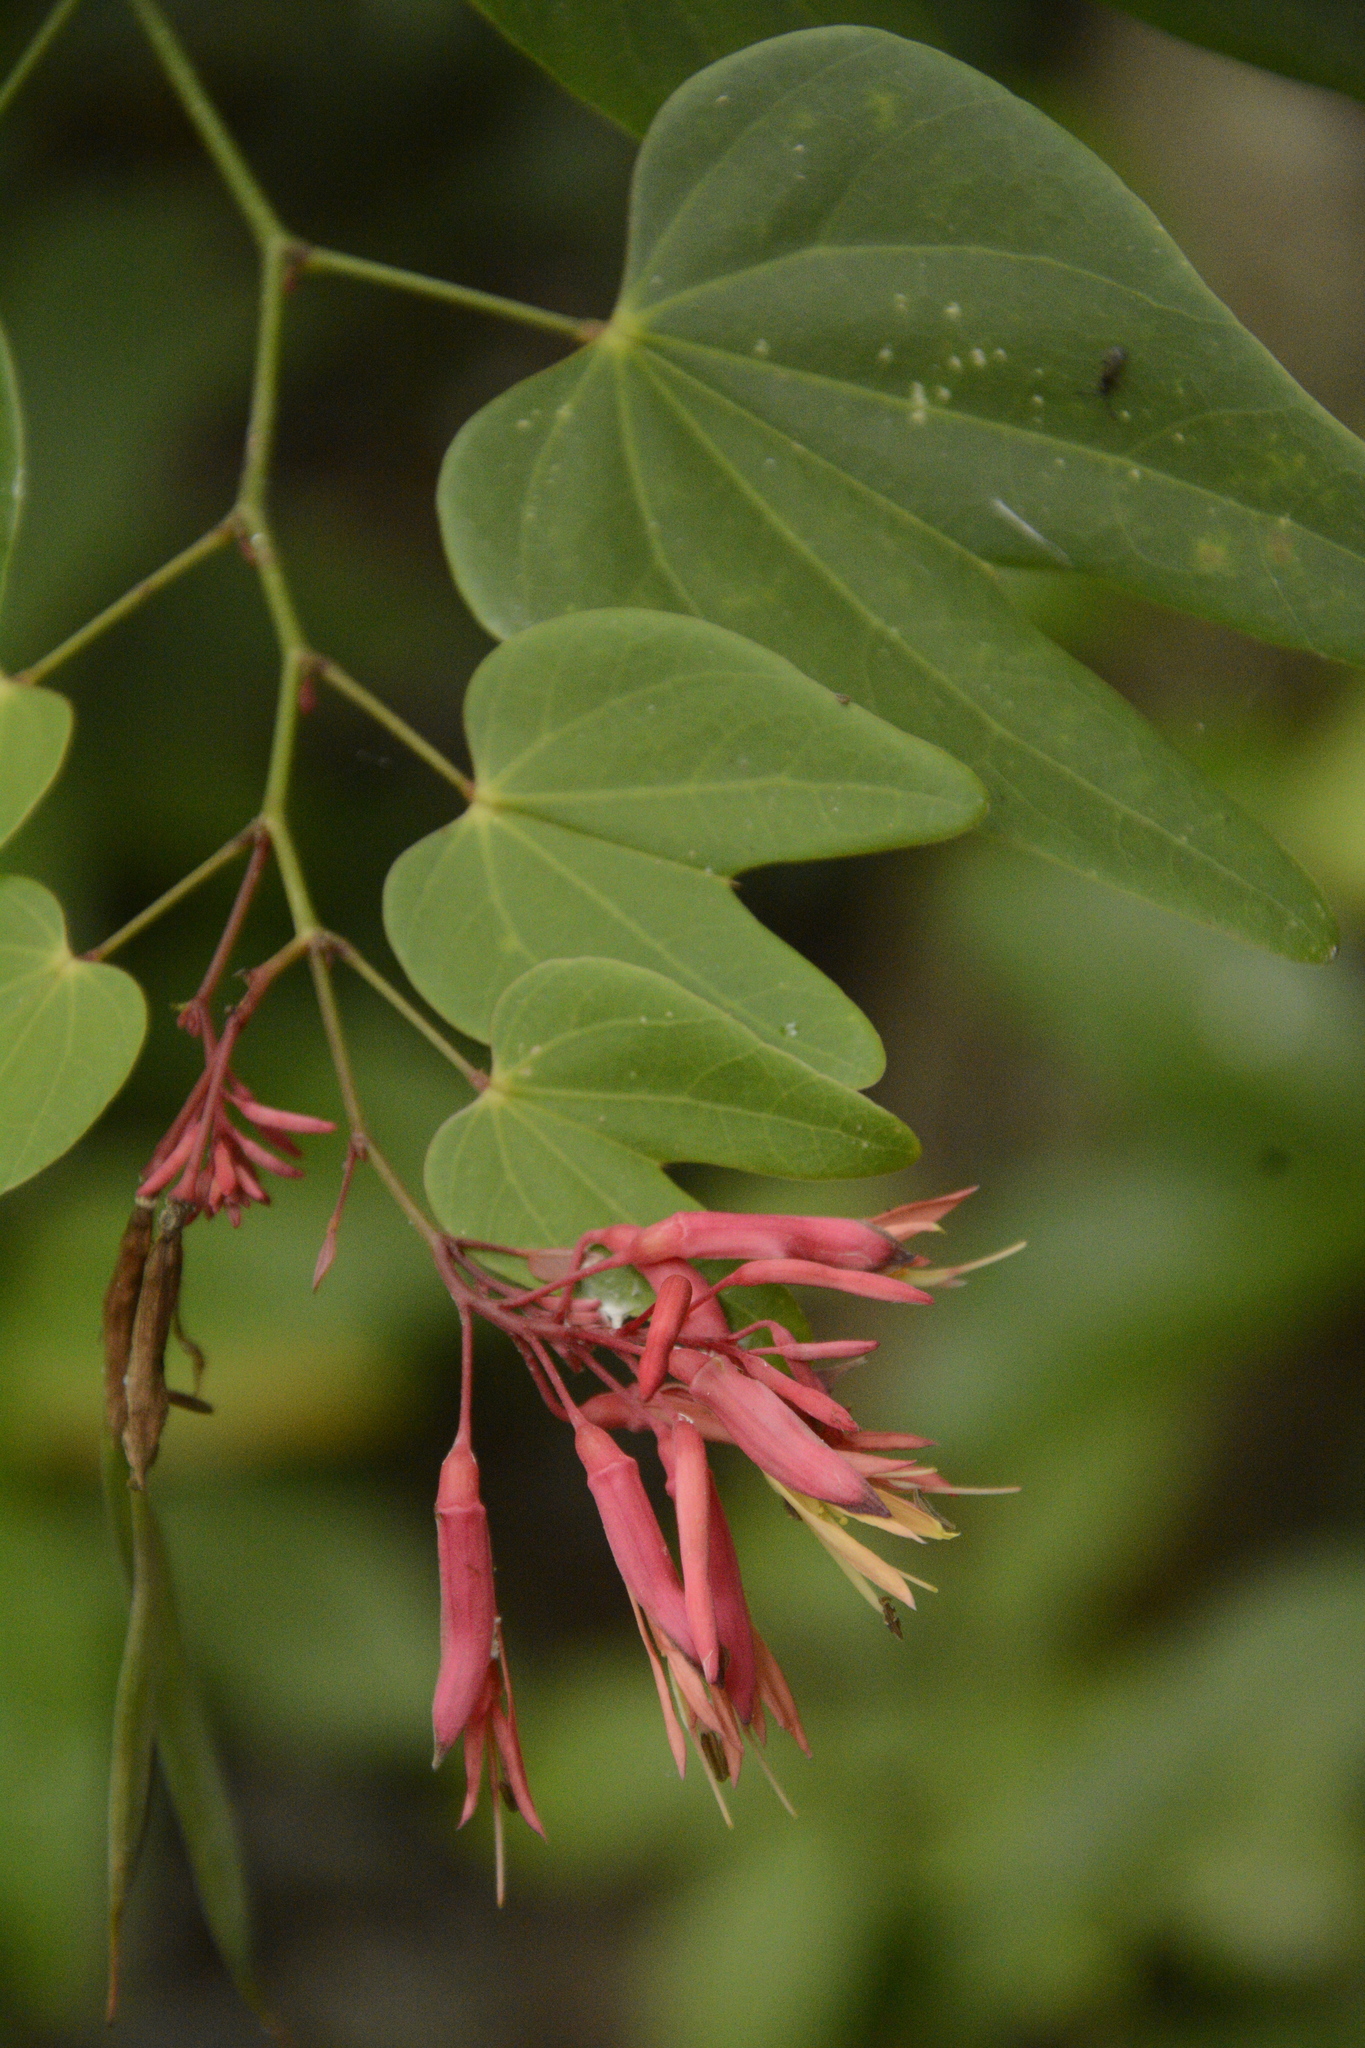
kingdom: Plantae
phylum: Tracheophyta
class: Magnoliopsida
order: Fabales
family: Fabaceae
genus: Bauhinia
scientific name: Bauhinia erythrocalyx
